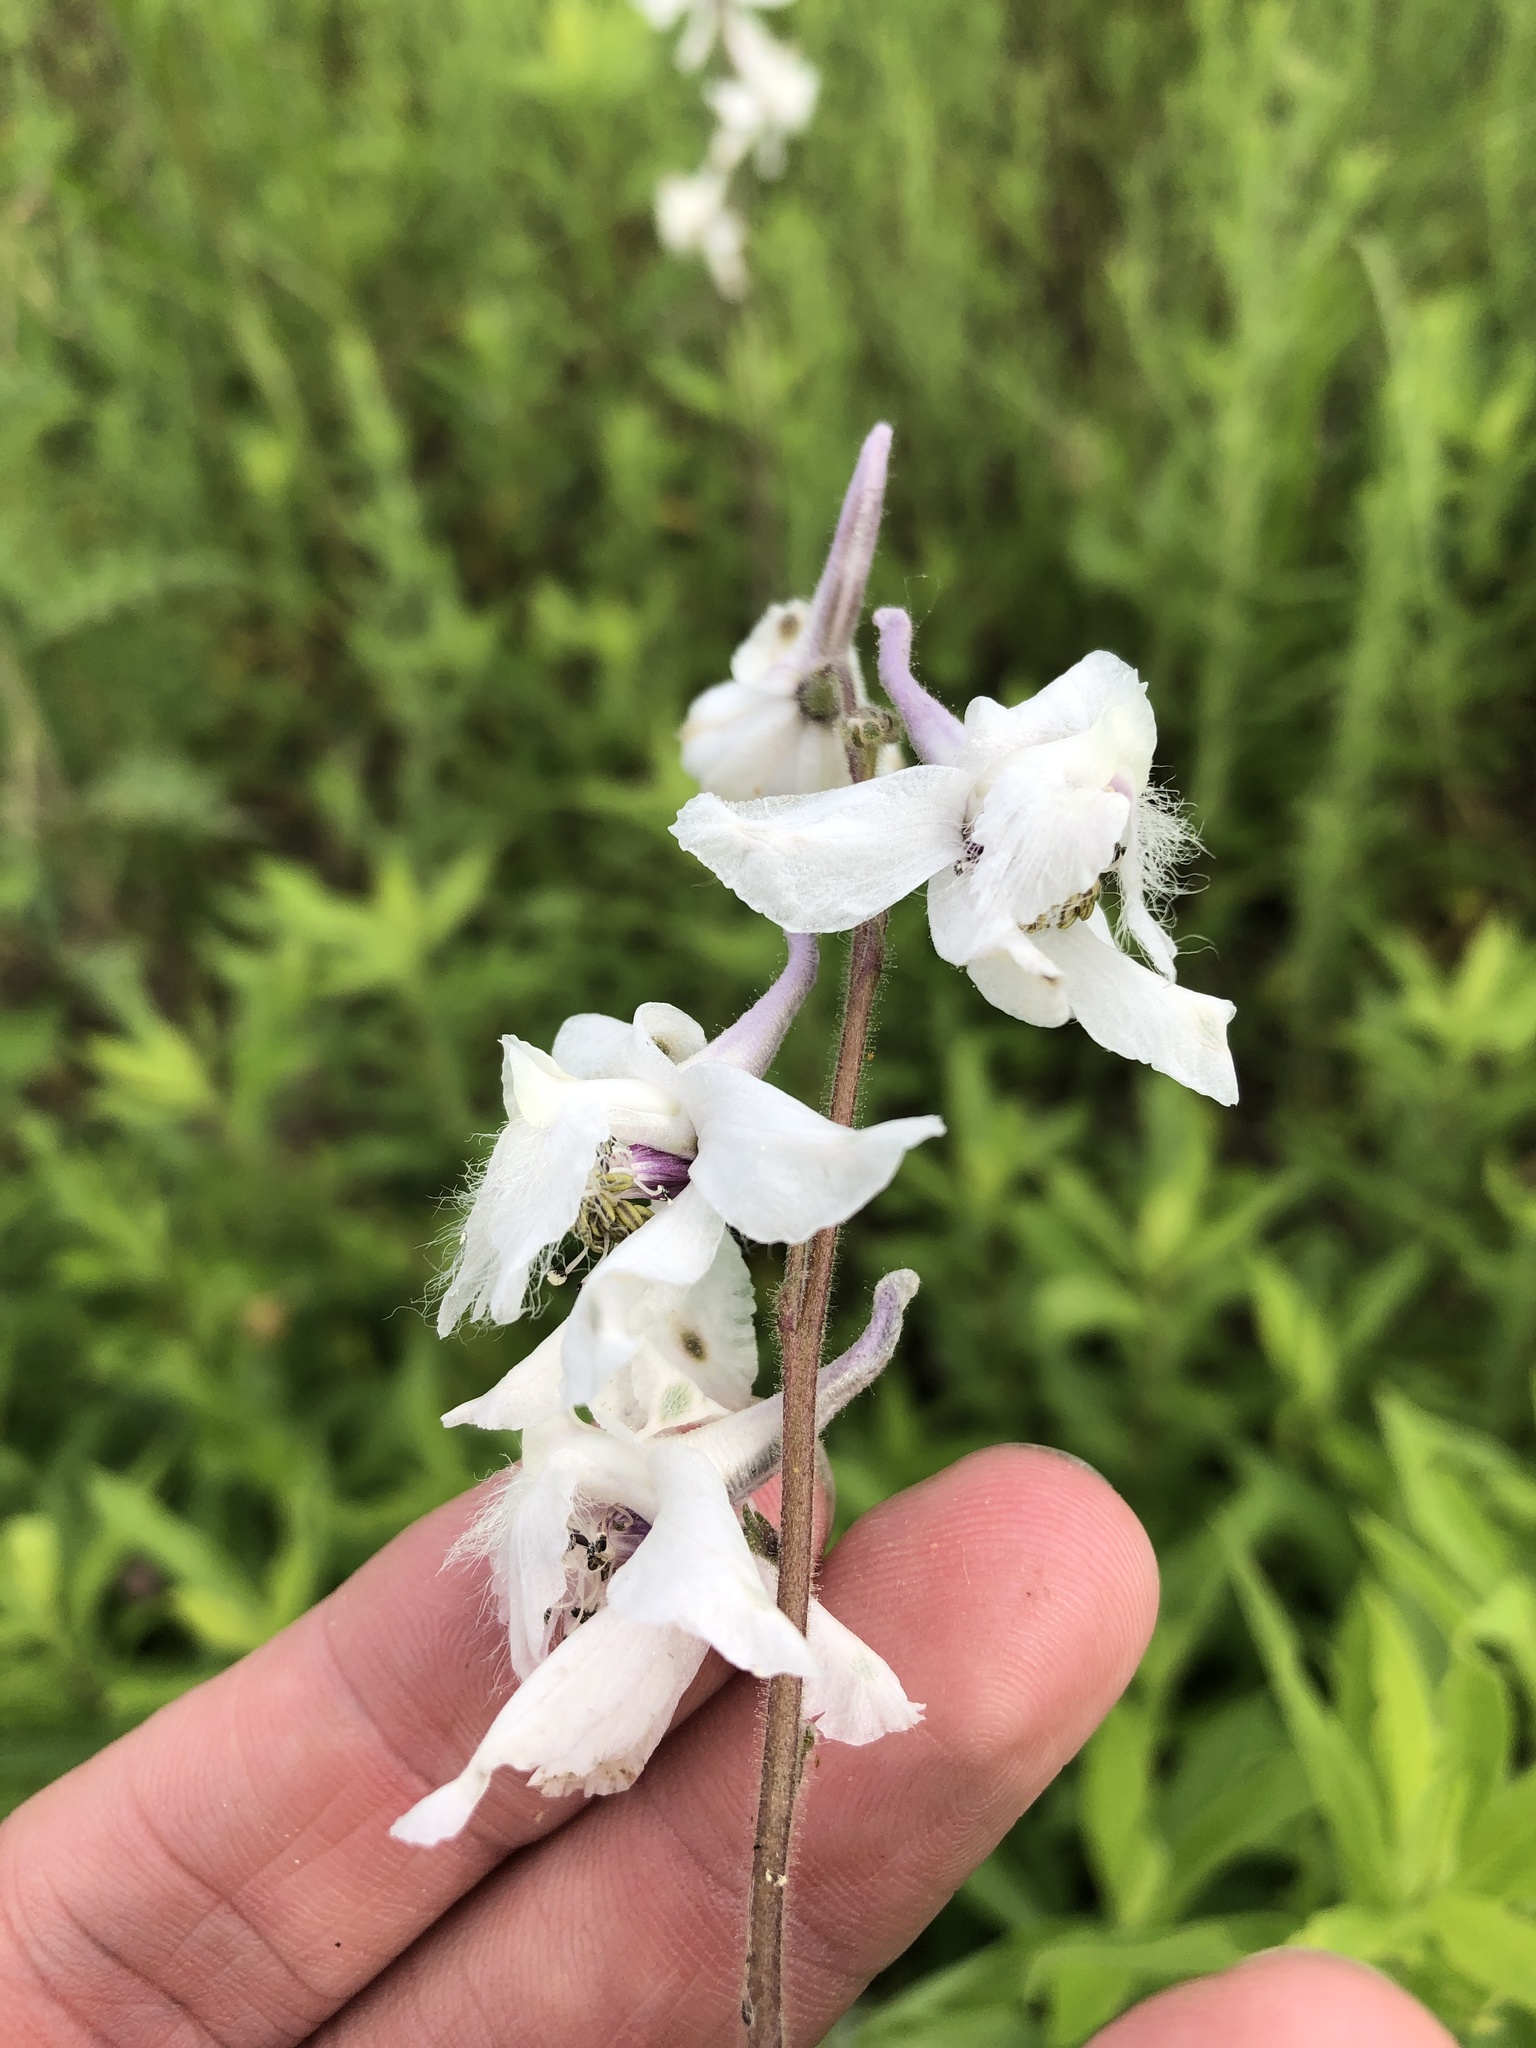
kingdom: Plantae
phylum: Tracheophyta
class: Magnoliopsida
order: Ranunculales
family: Ranunculaceae
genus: Delphinium
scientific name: Delphinium carolinianum
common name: Carolina larkspur
